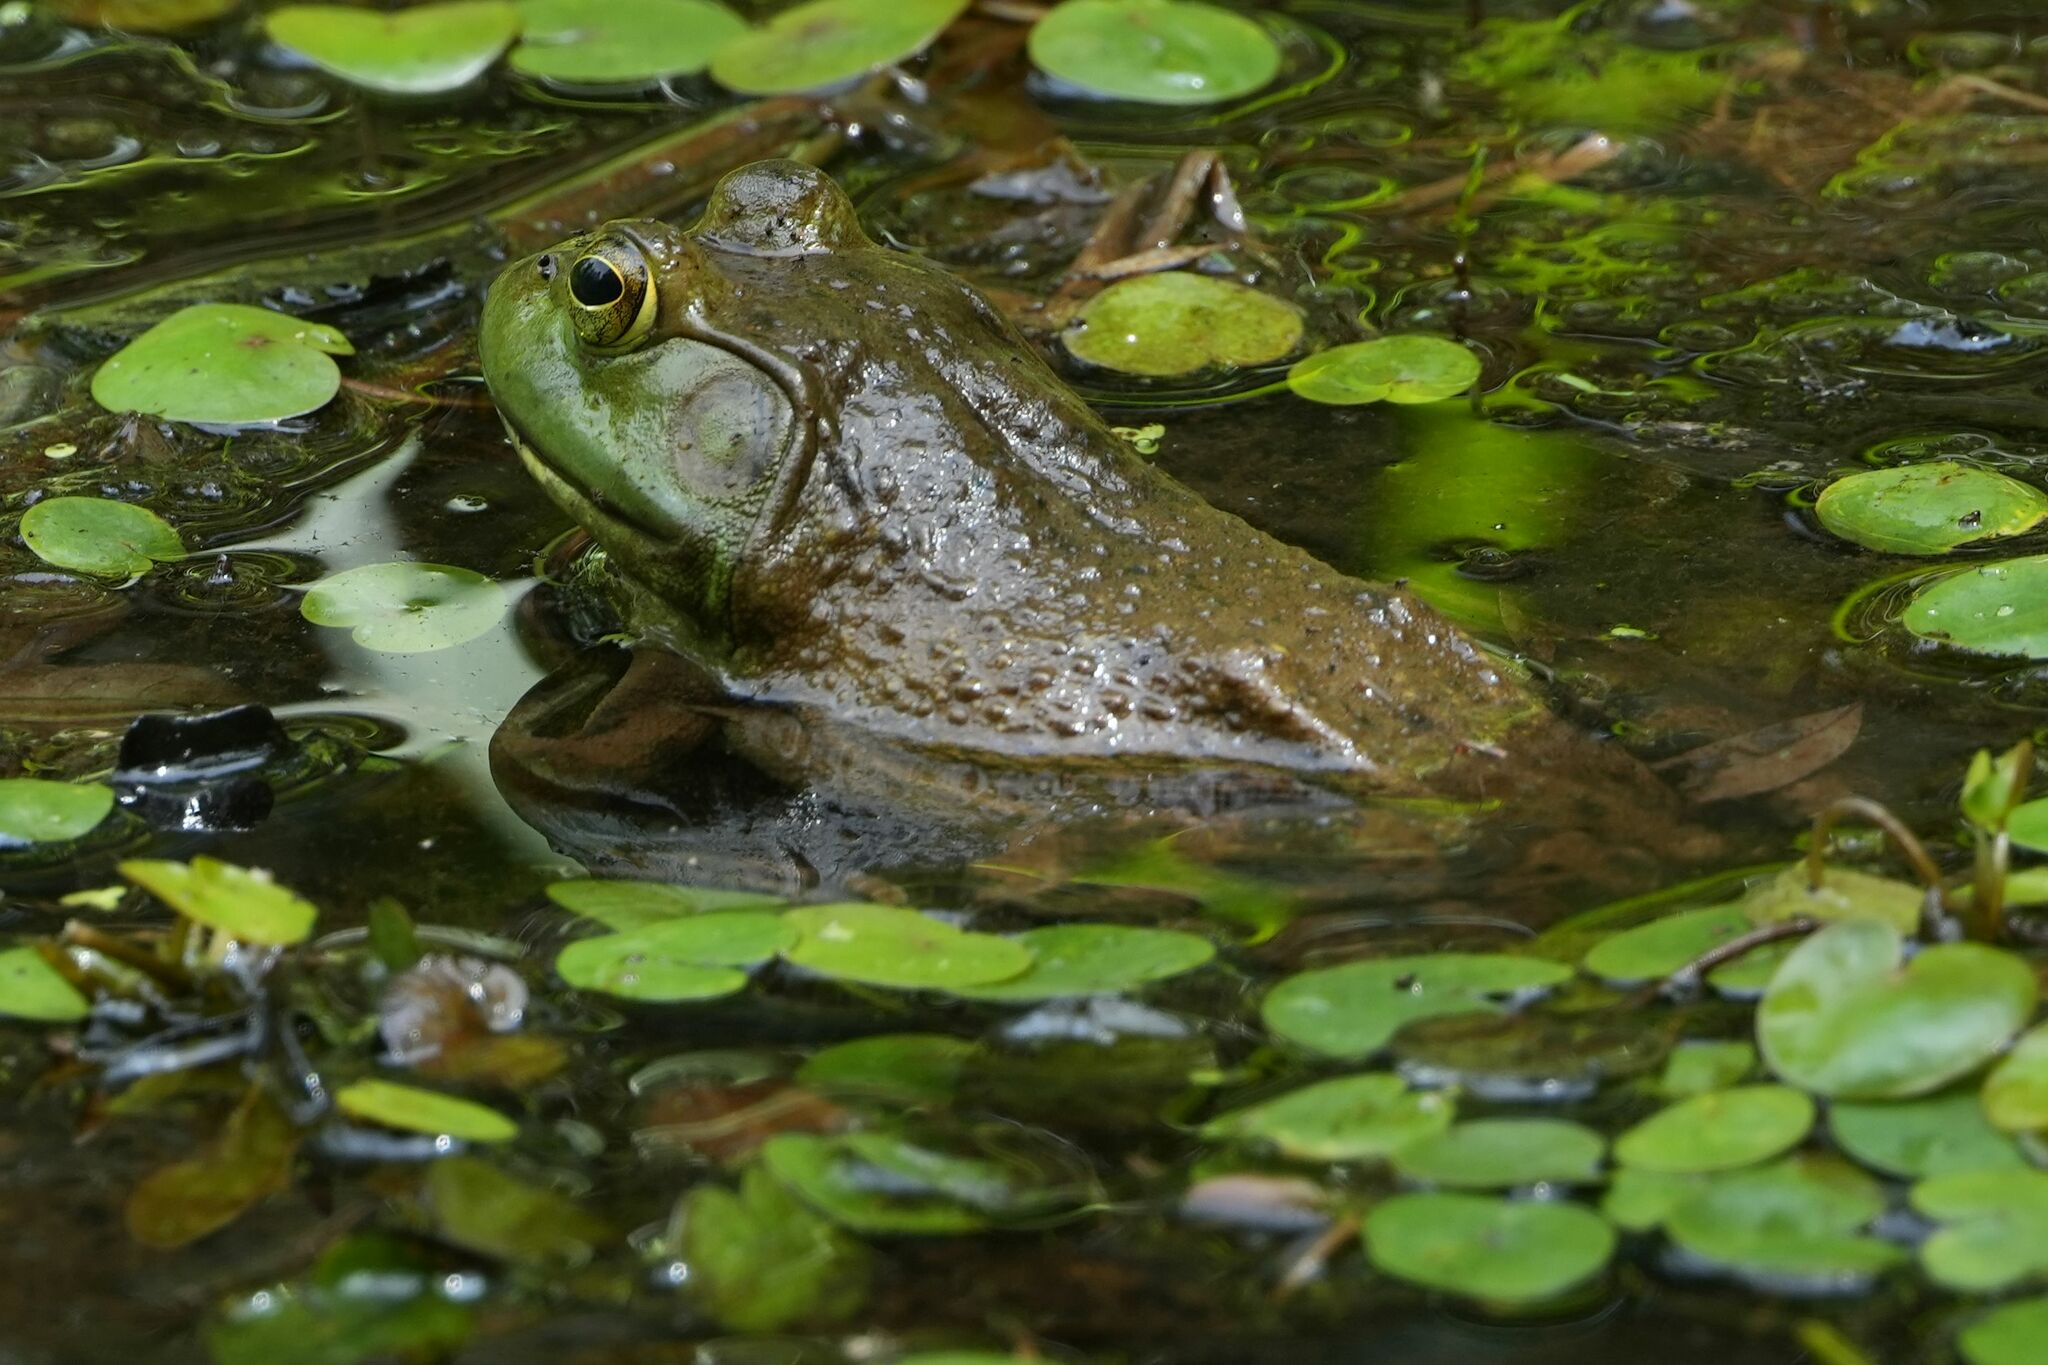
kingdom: Animalia
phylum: Chordata
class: Amphibia
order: Anura
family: Ranidae
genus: Lithobates
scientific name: Lithobates catesbeianus
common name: American bullfrog
